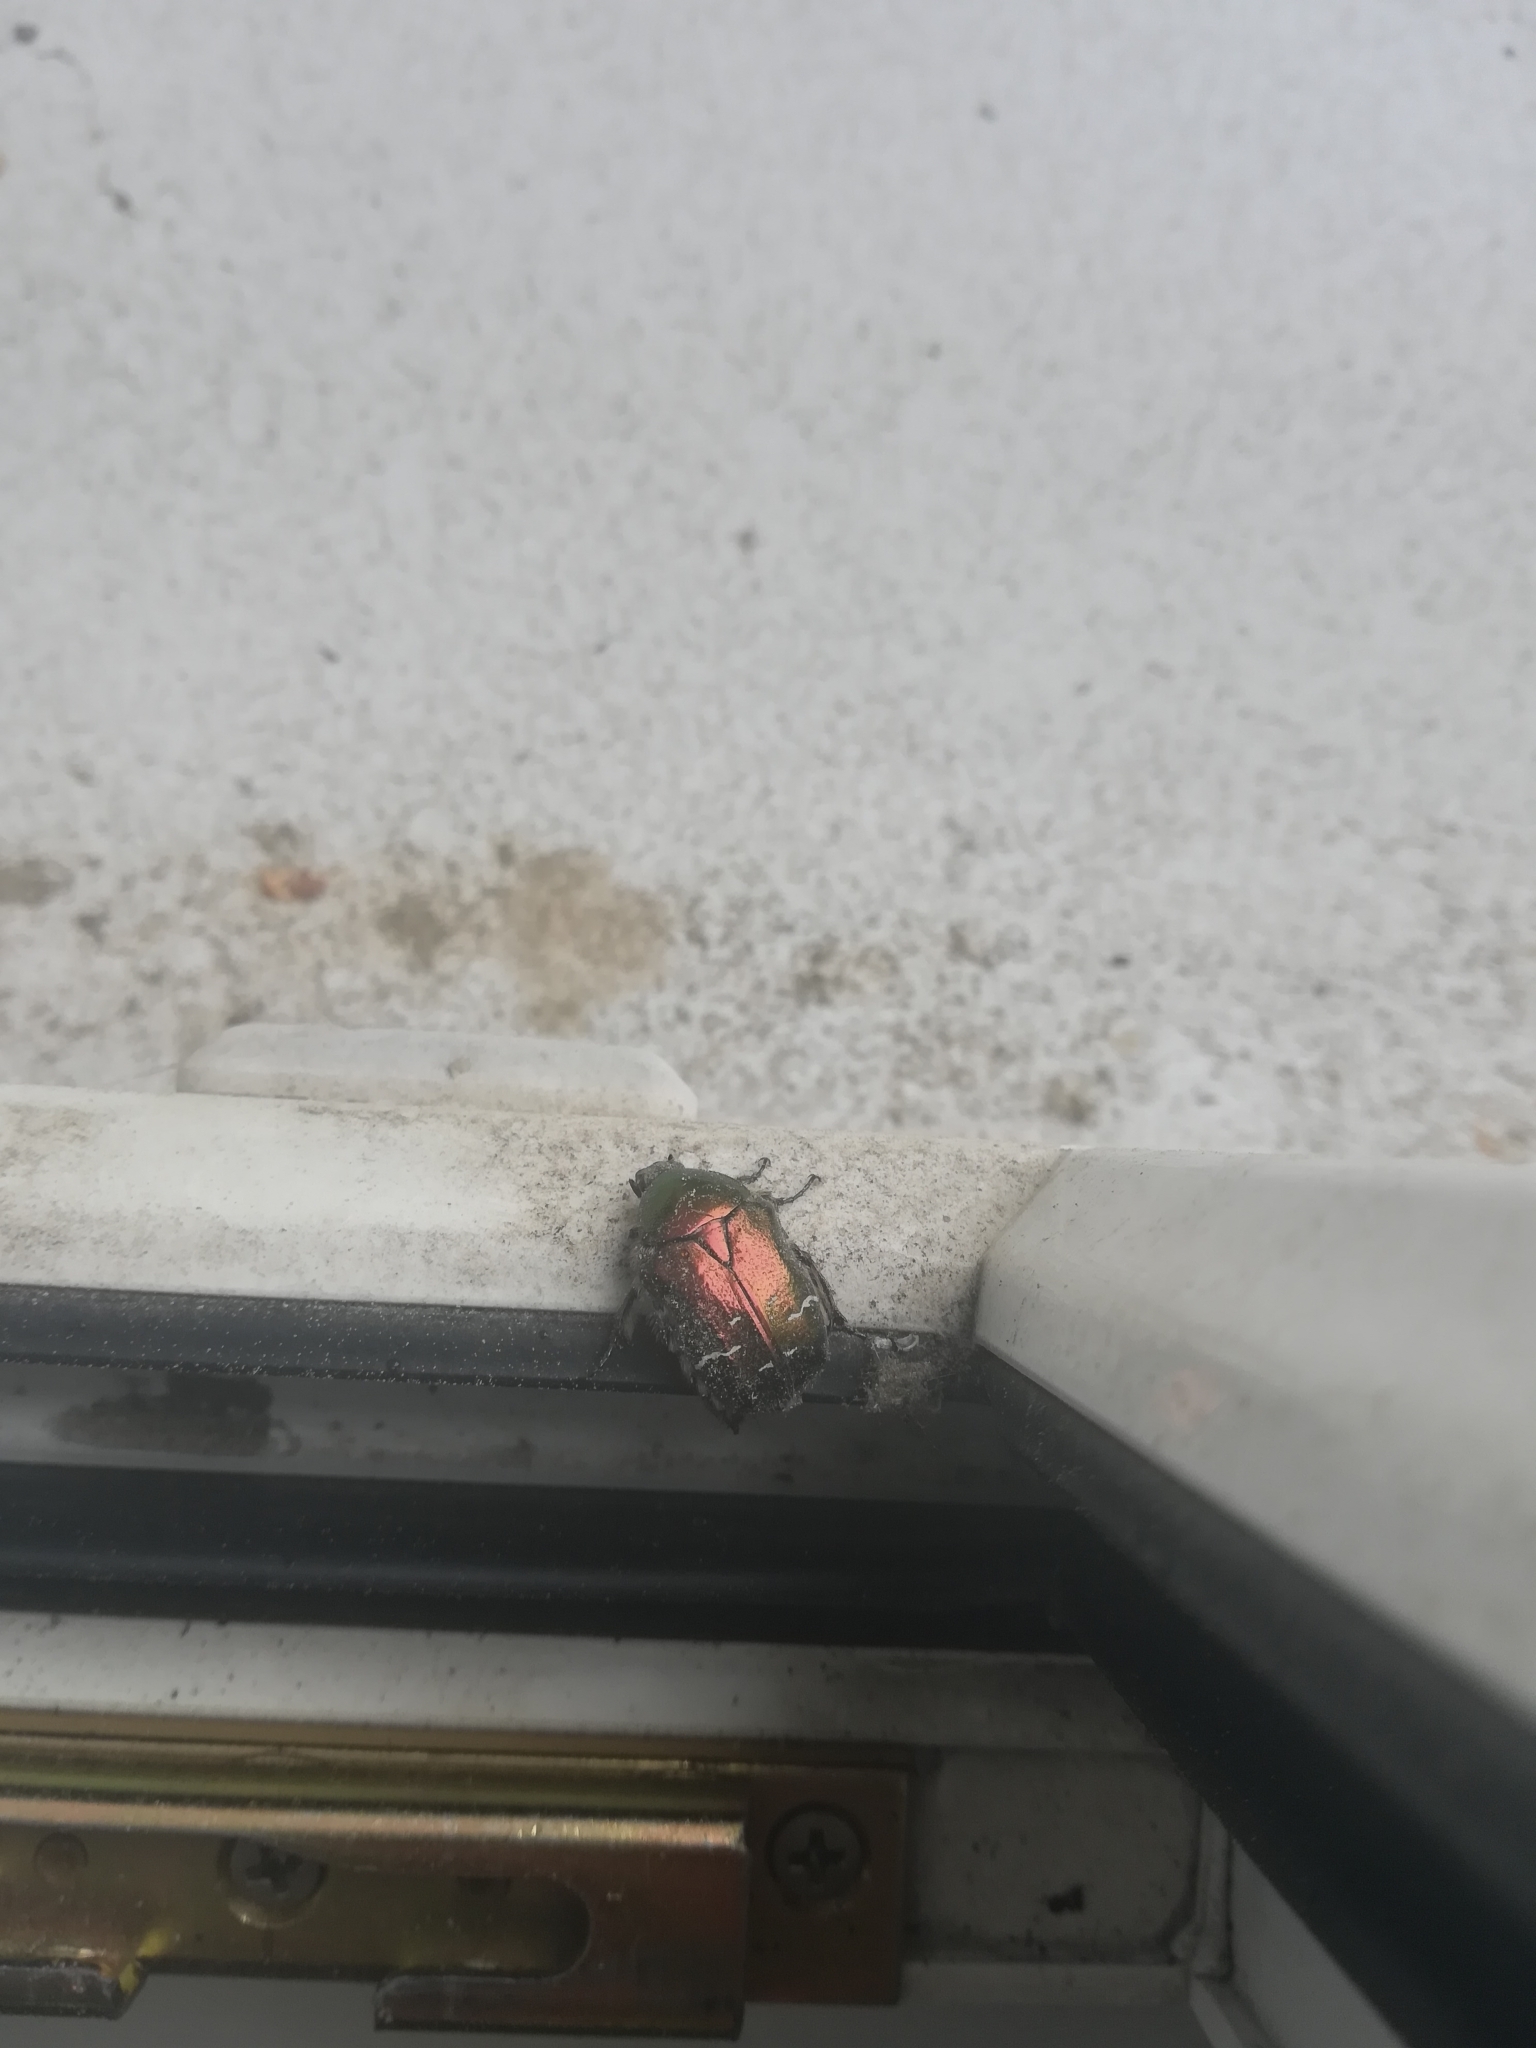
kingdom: Animalia
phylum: Arthropoda
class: Insecta
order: Coleoptera
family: Scarabaeidae
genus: Cetonia
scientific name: Cetonia aurata
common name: Rose chafer
